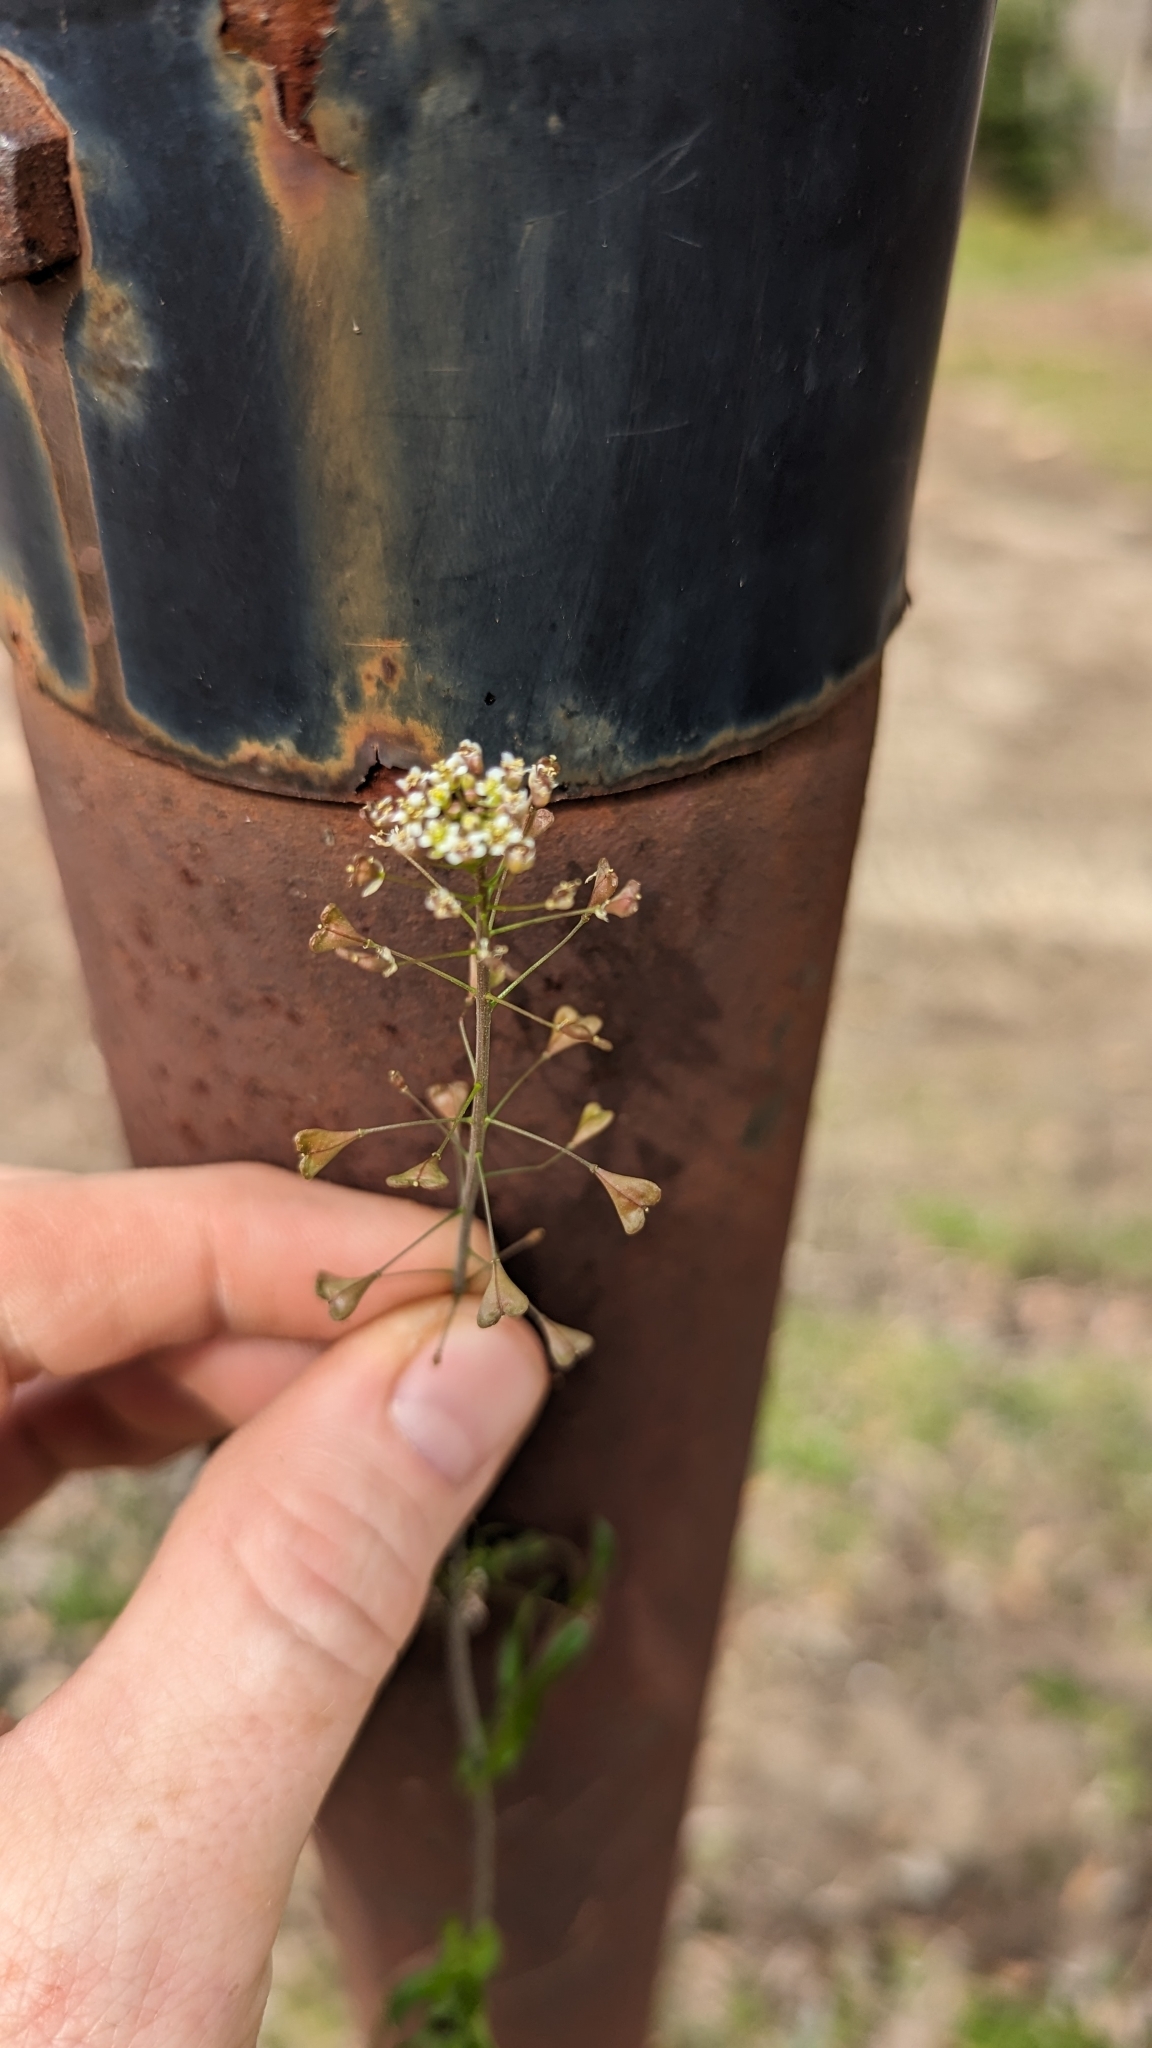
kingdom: Plantae
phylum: Tracheophyta
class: Magnoliopsida
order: Brassicales
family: Brassicaceae
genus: Capsella
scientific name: Capsella bursa-pastoris
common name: Shepherd's purse
